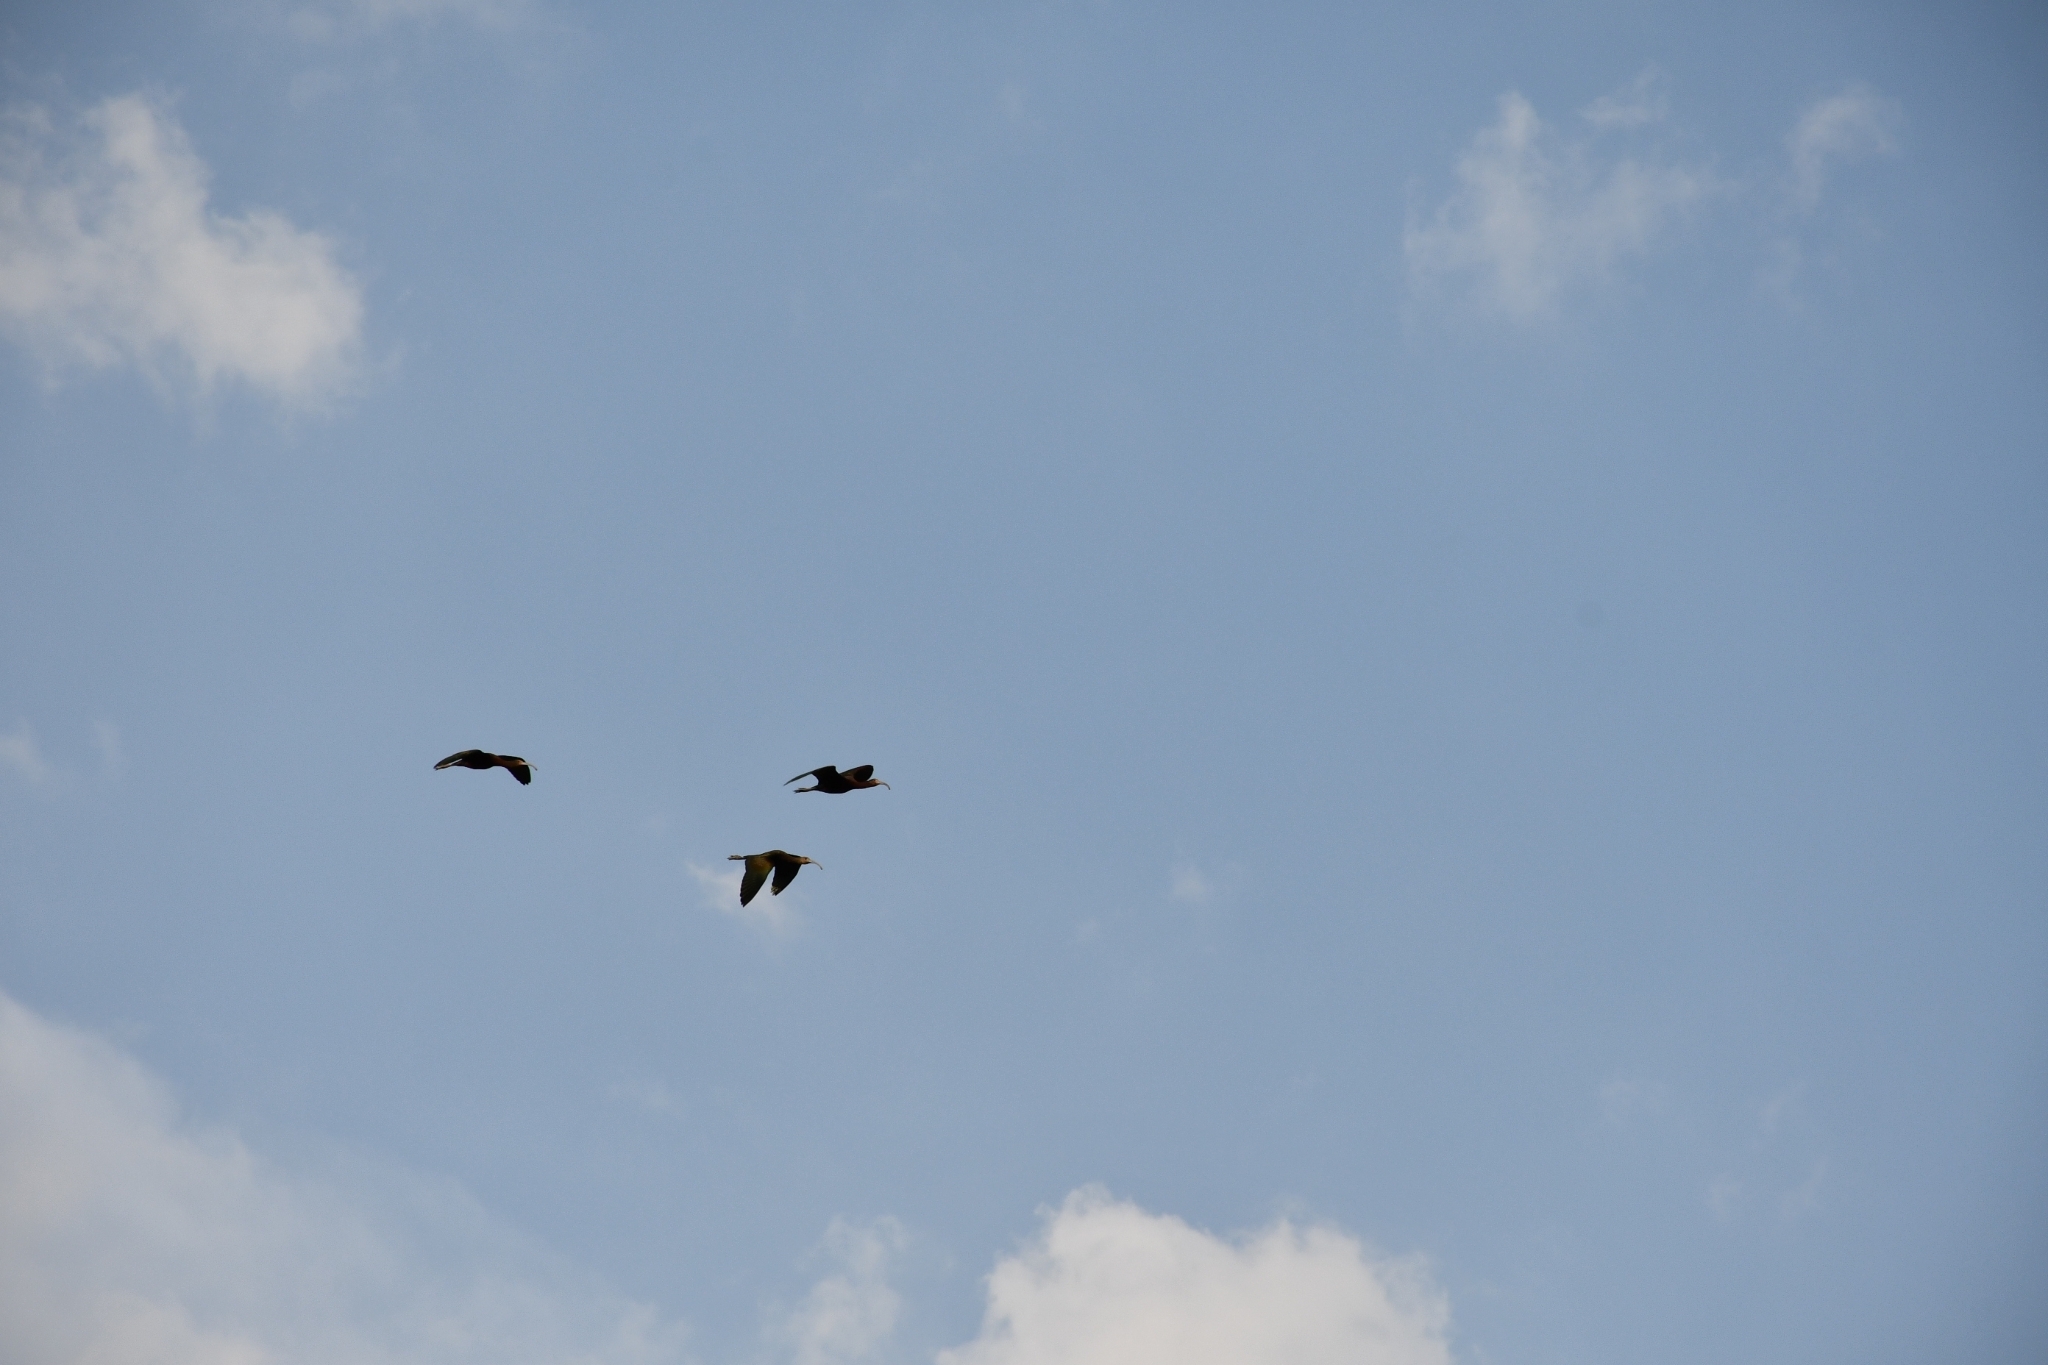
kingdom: Animalia
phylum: Chordata
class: Aves
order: Pelecaniformes
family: Threskiornithidae
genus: Plegadis
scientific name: Plegadis chihi
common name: White-faced ibis
